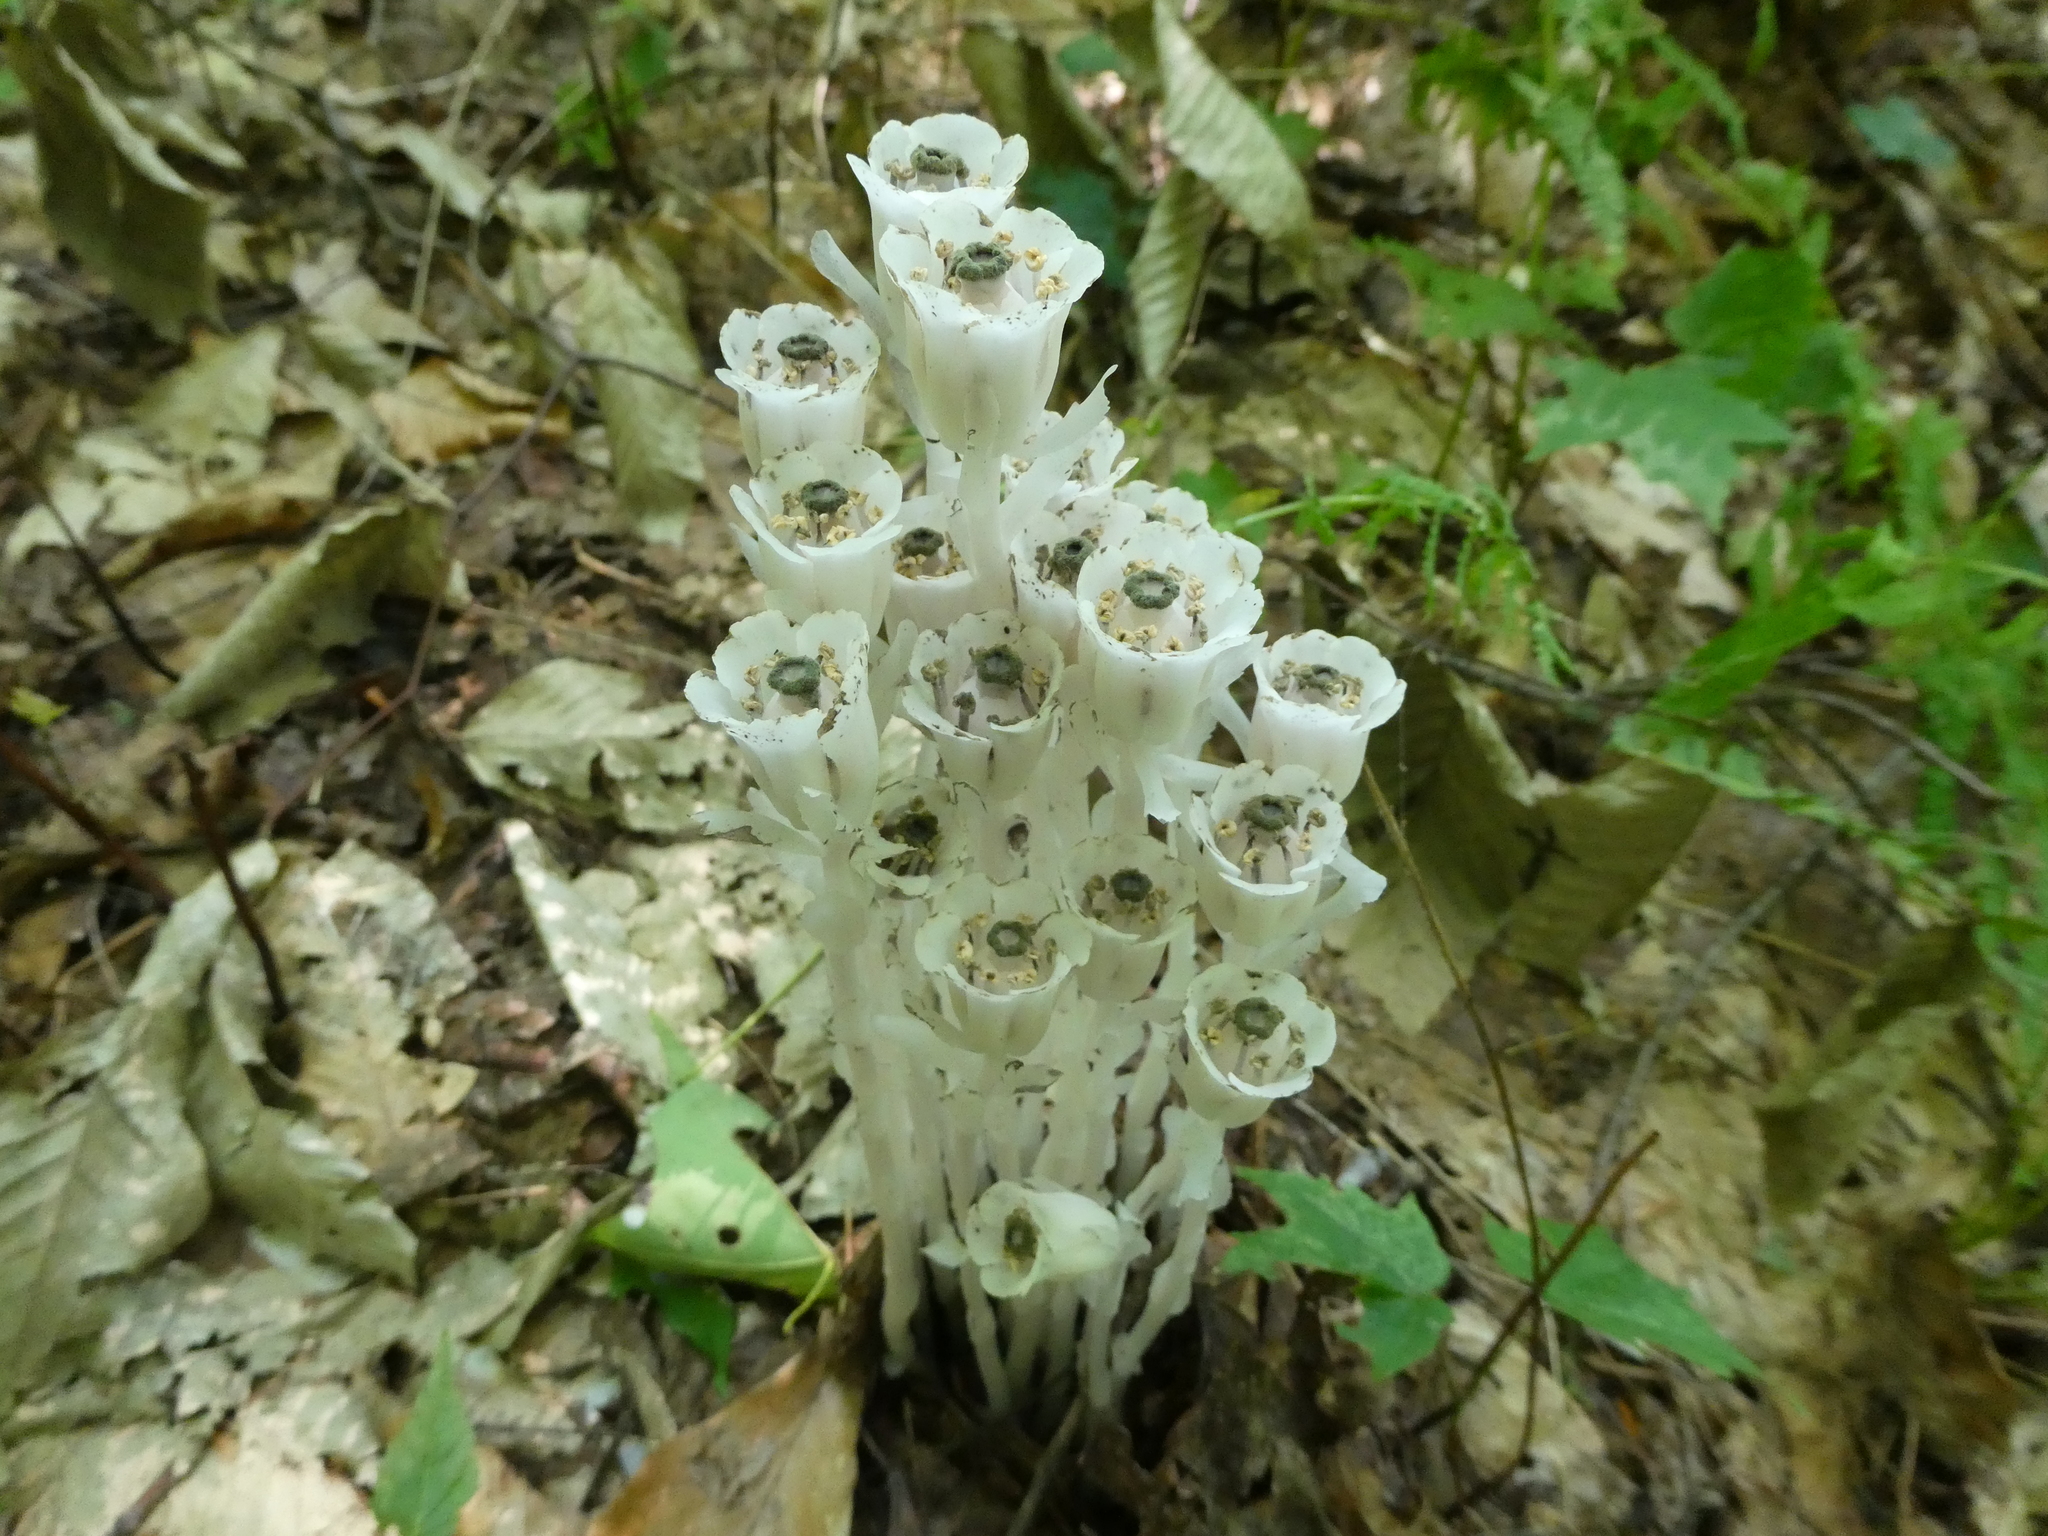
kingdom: Plantae
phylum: Tracheophyta
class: Magnoliopsida
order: Ericales
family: Ericaceae
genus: Monotropa
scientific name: Monotropa uniflora
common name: Convulsion root
